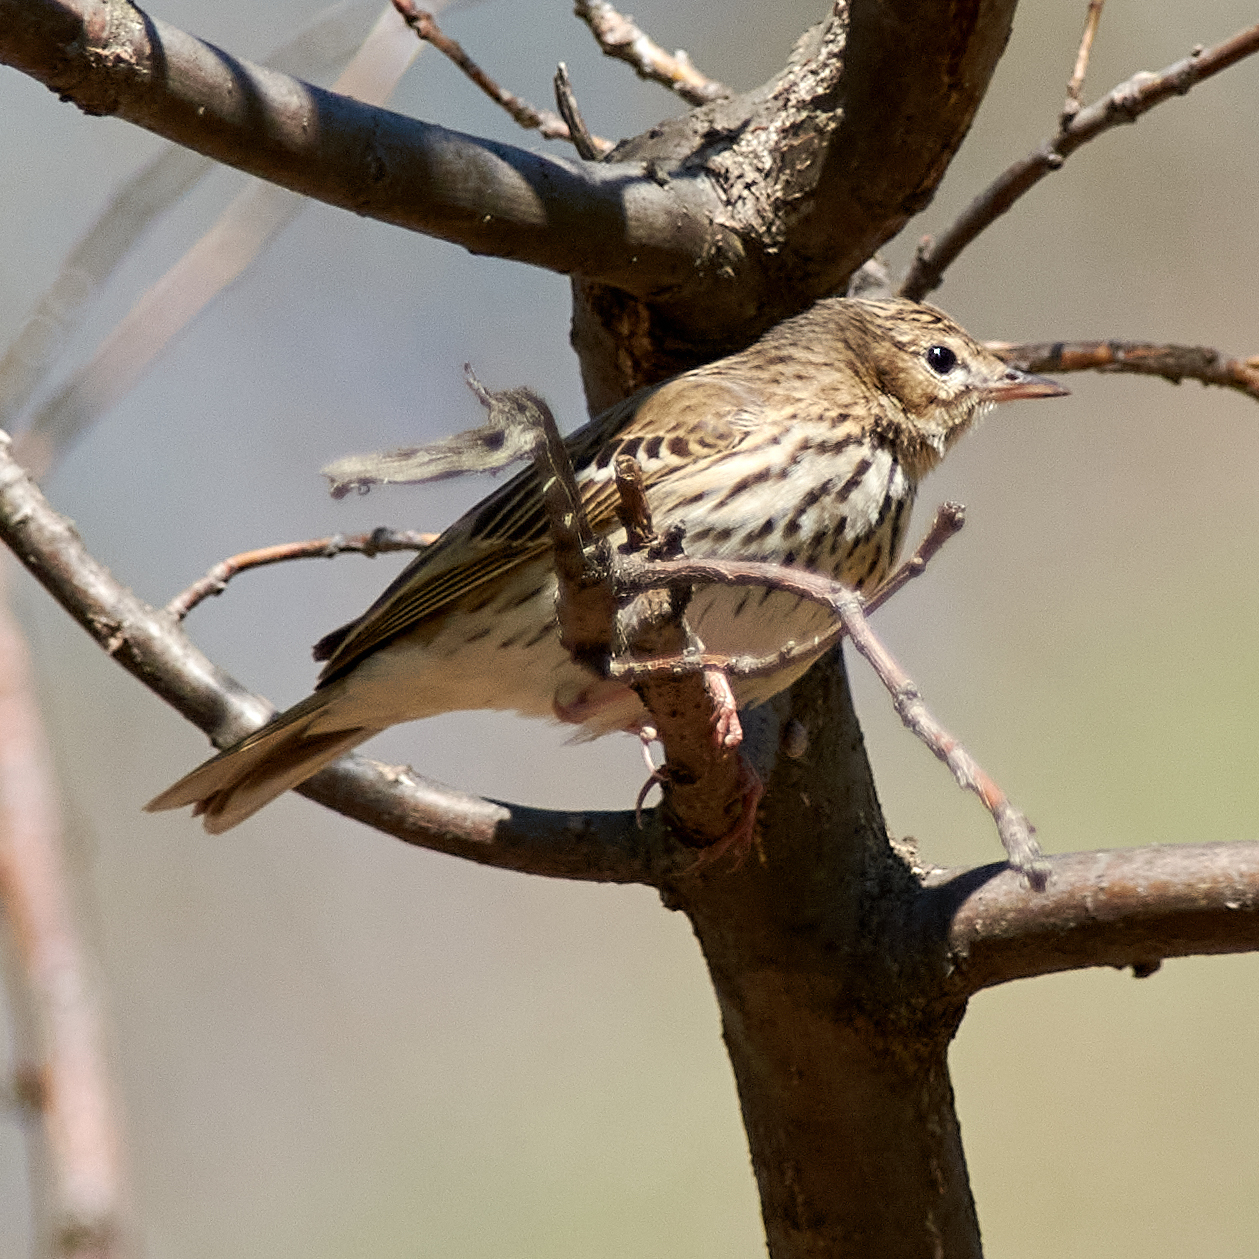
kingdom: Animalia
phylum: Chordata
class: Aves
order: Passeriformes
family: Motacillidae
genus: Anthus
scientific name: Anthus trivialis
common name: Tree pipit
